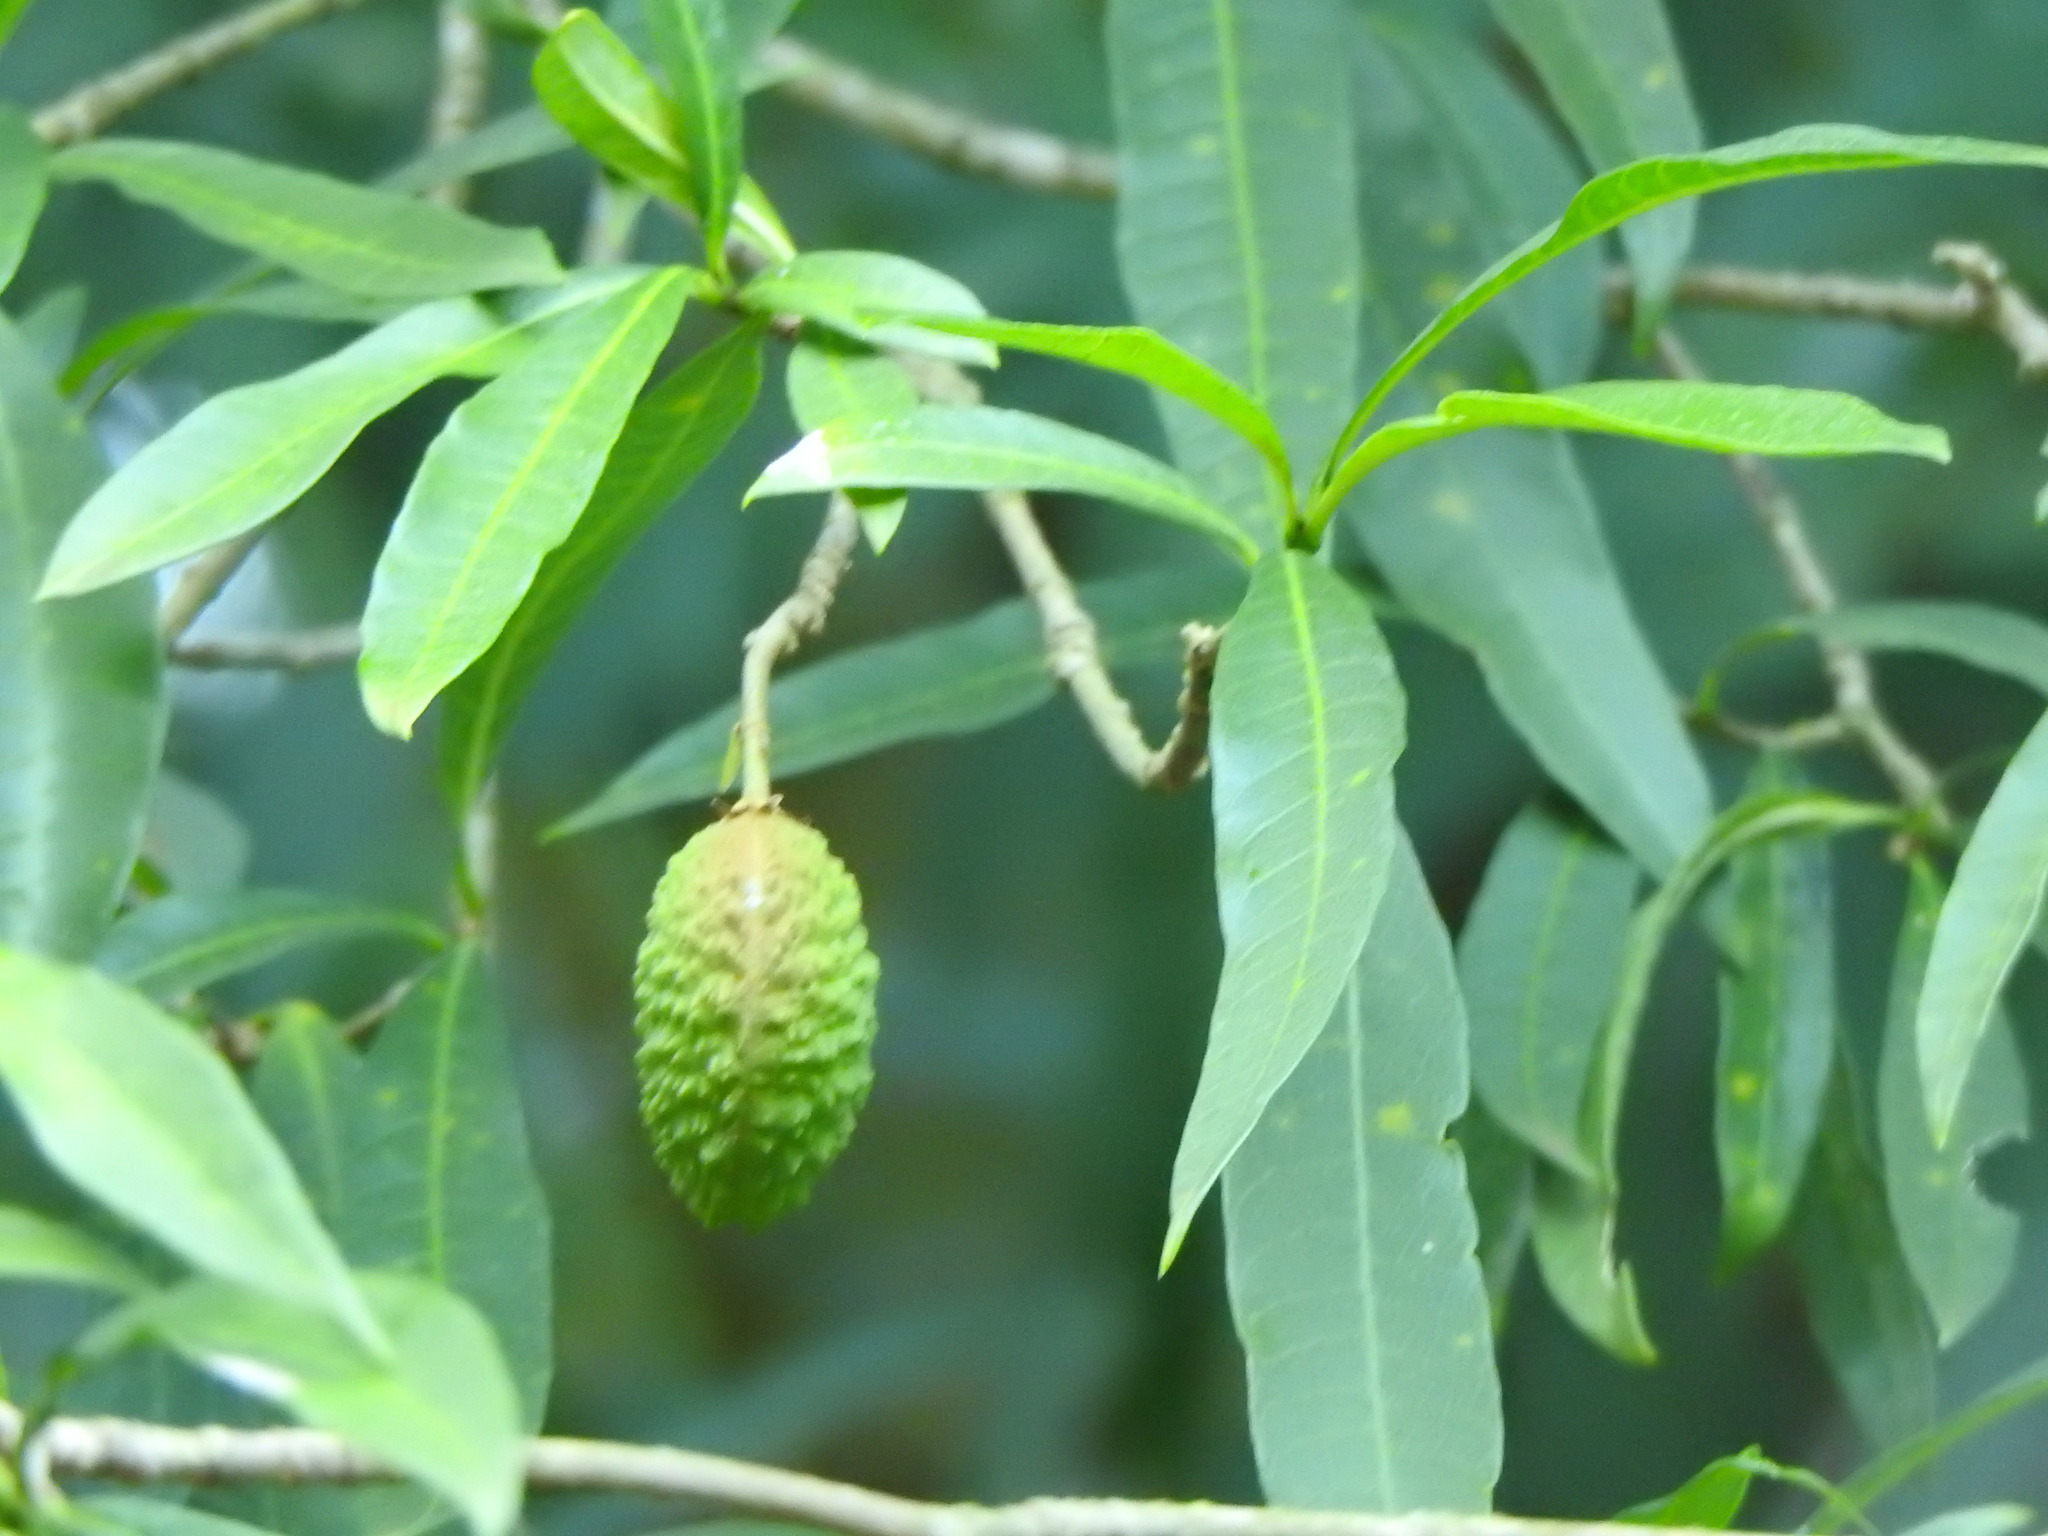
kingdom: Plantae
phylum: Tracheophyta
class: Magnoliopsida
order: Gentianales
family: Apocynaceae
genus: Tabernaemontana
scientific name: Tabernaemontana catharinensis
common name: Pinwheel-flower
